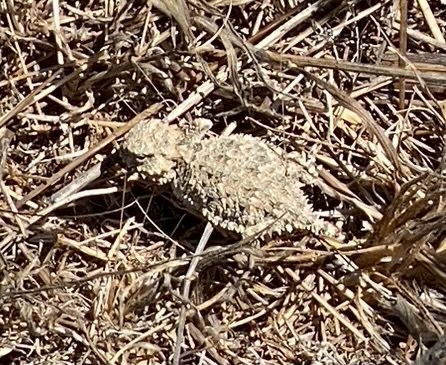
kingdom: Animalia
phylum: Chordata
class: Squamata
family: Phrynosomatidae
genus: Phrynosoma
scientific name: Phrynosoma blainvillii
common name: San diego horned lizard
